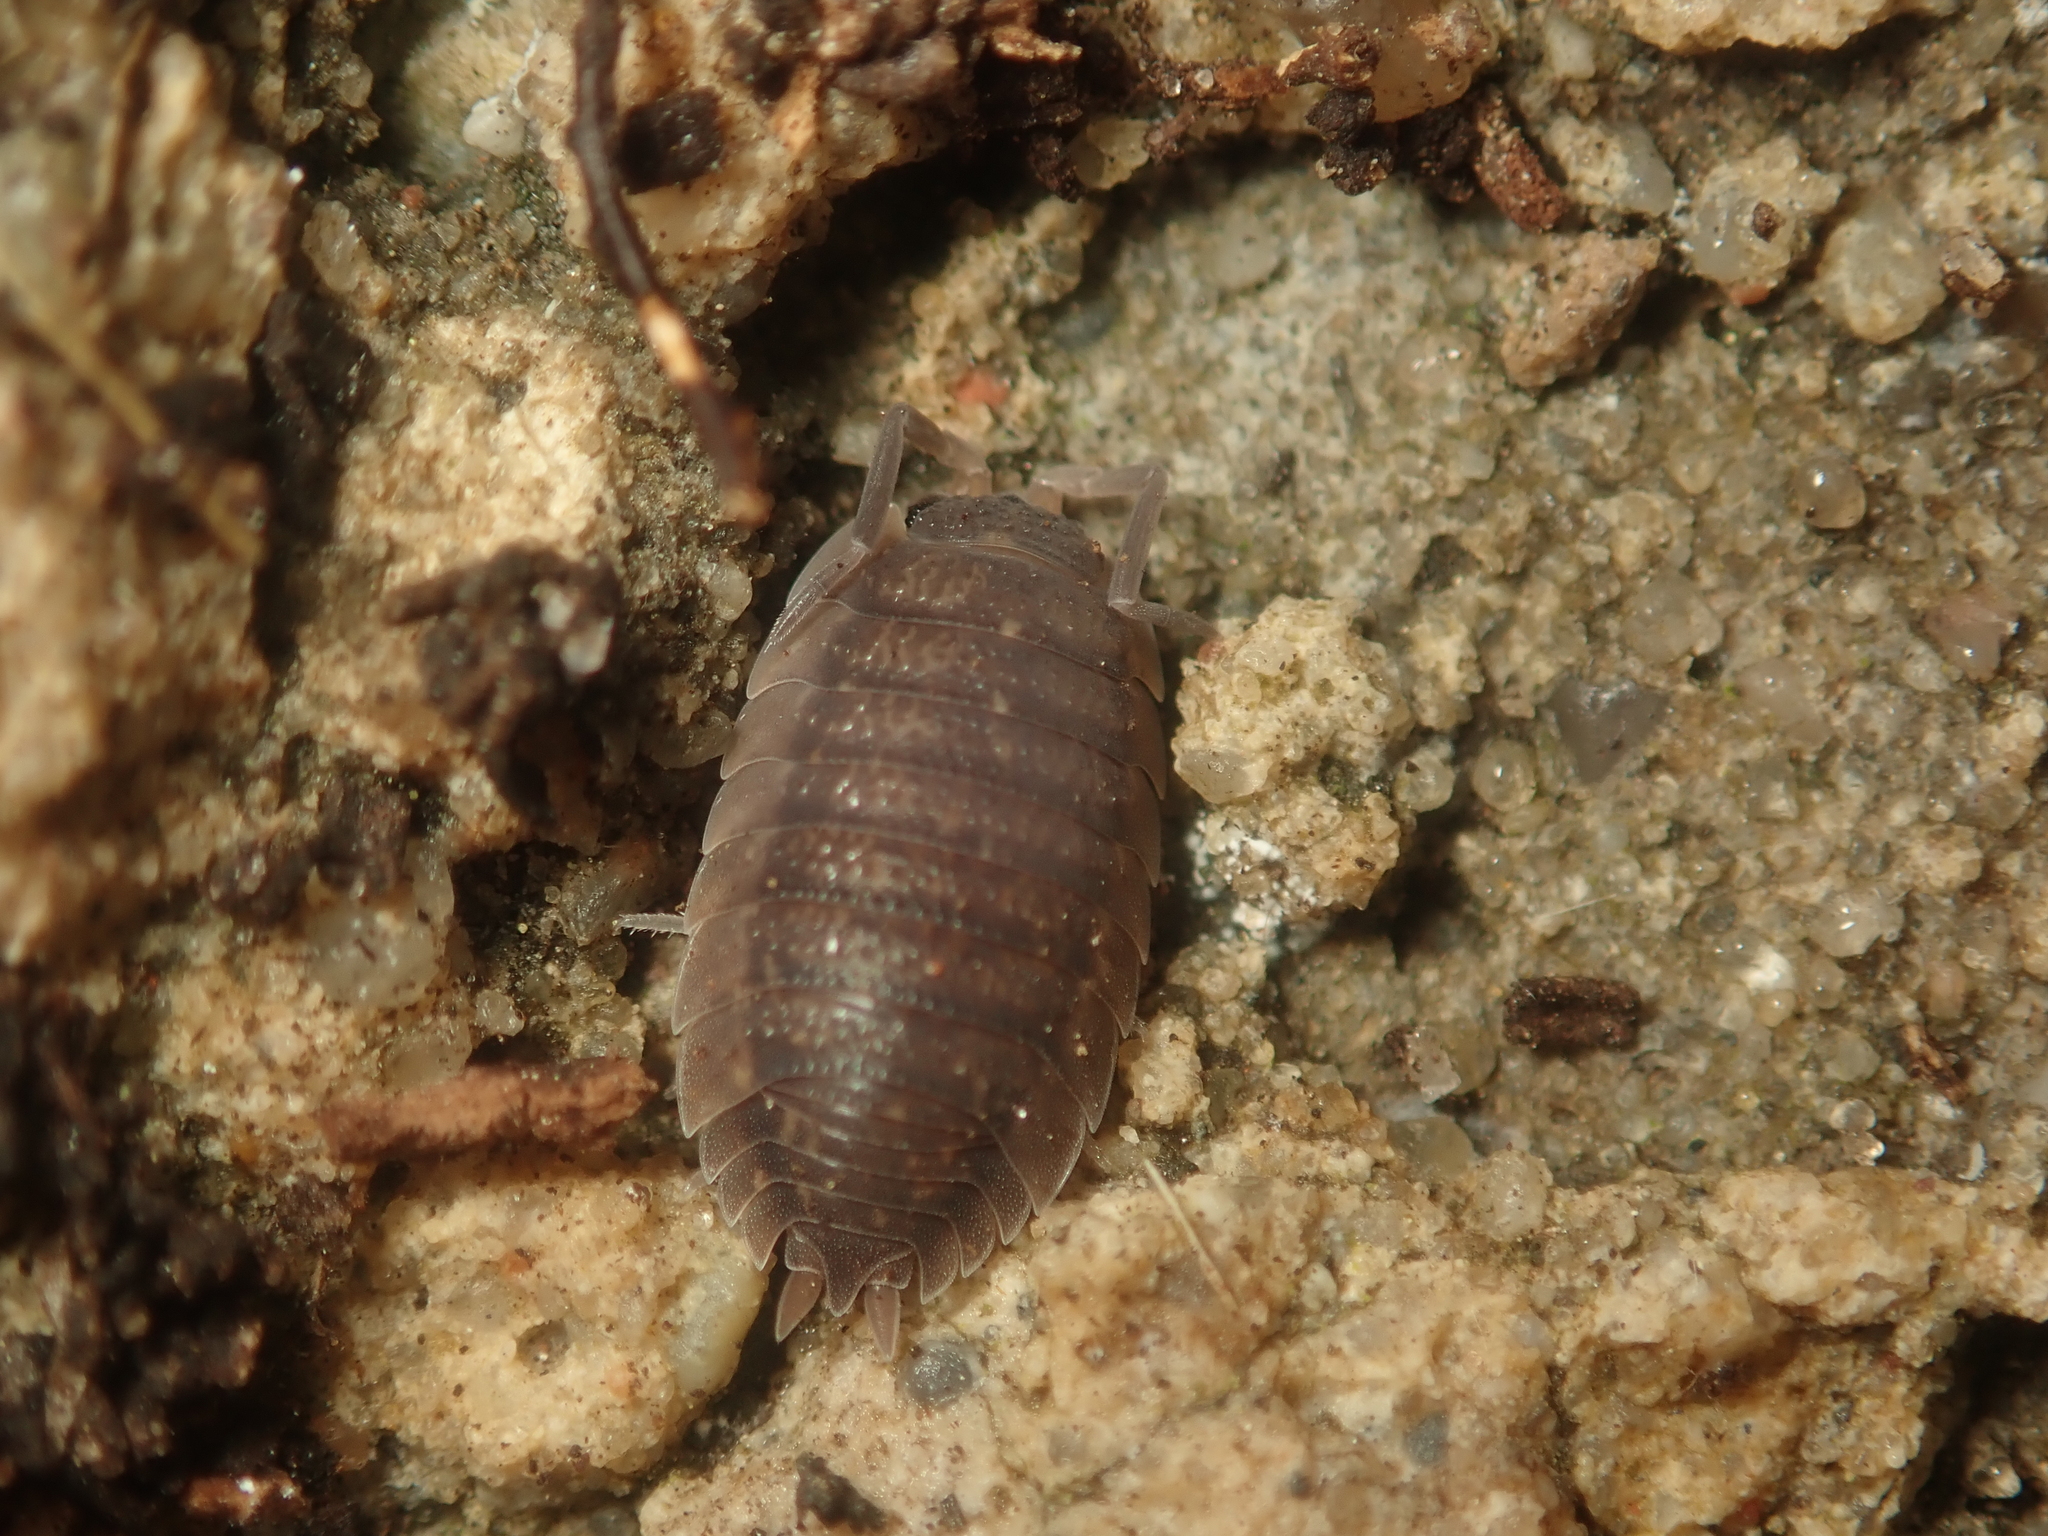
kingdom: Animalia
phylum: Arthropoda
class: Malacostraca
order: Isopoda
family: Porcellionidae
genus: Porcellio
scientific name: Porcellio scaber
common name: Common rough woodlouse
